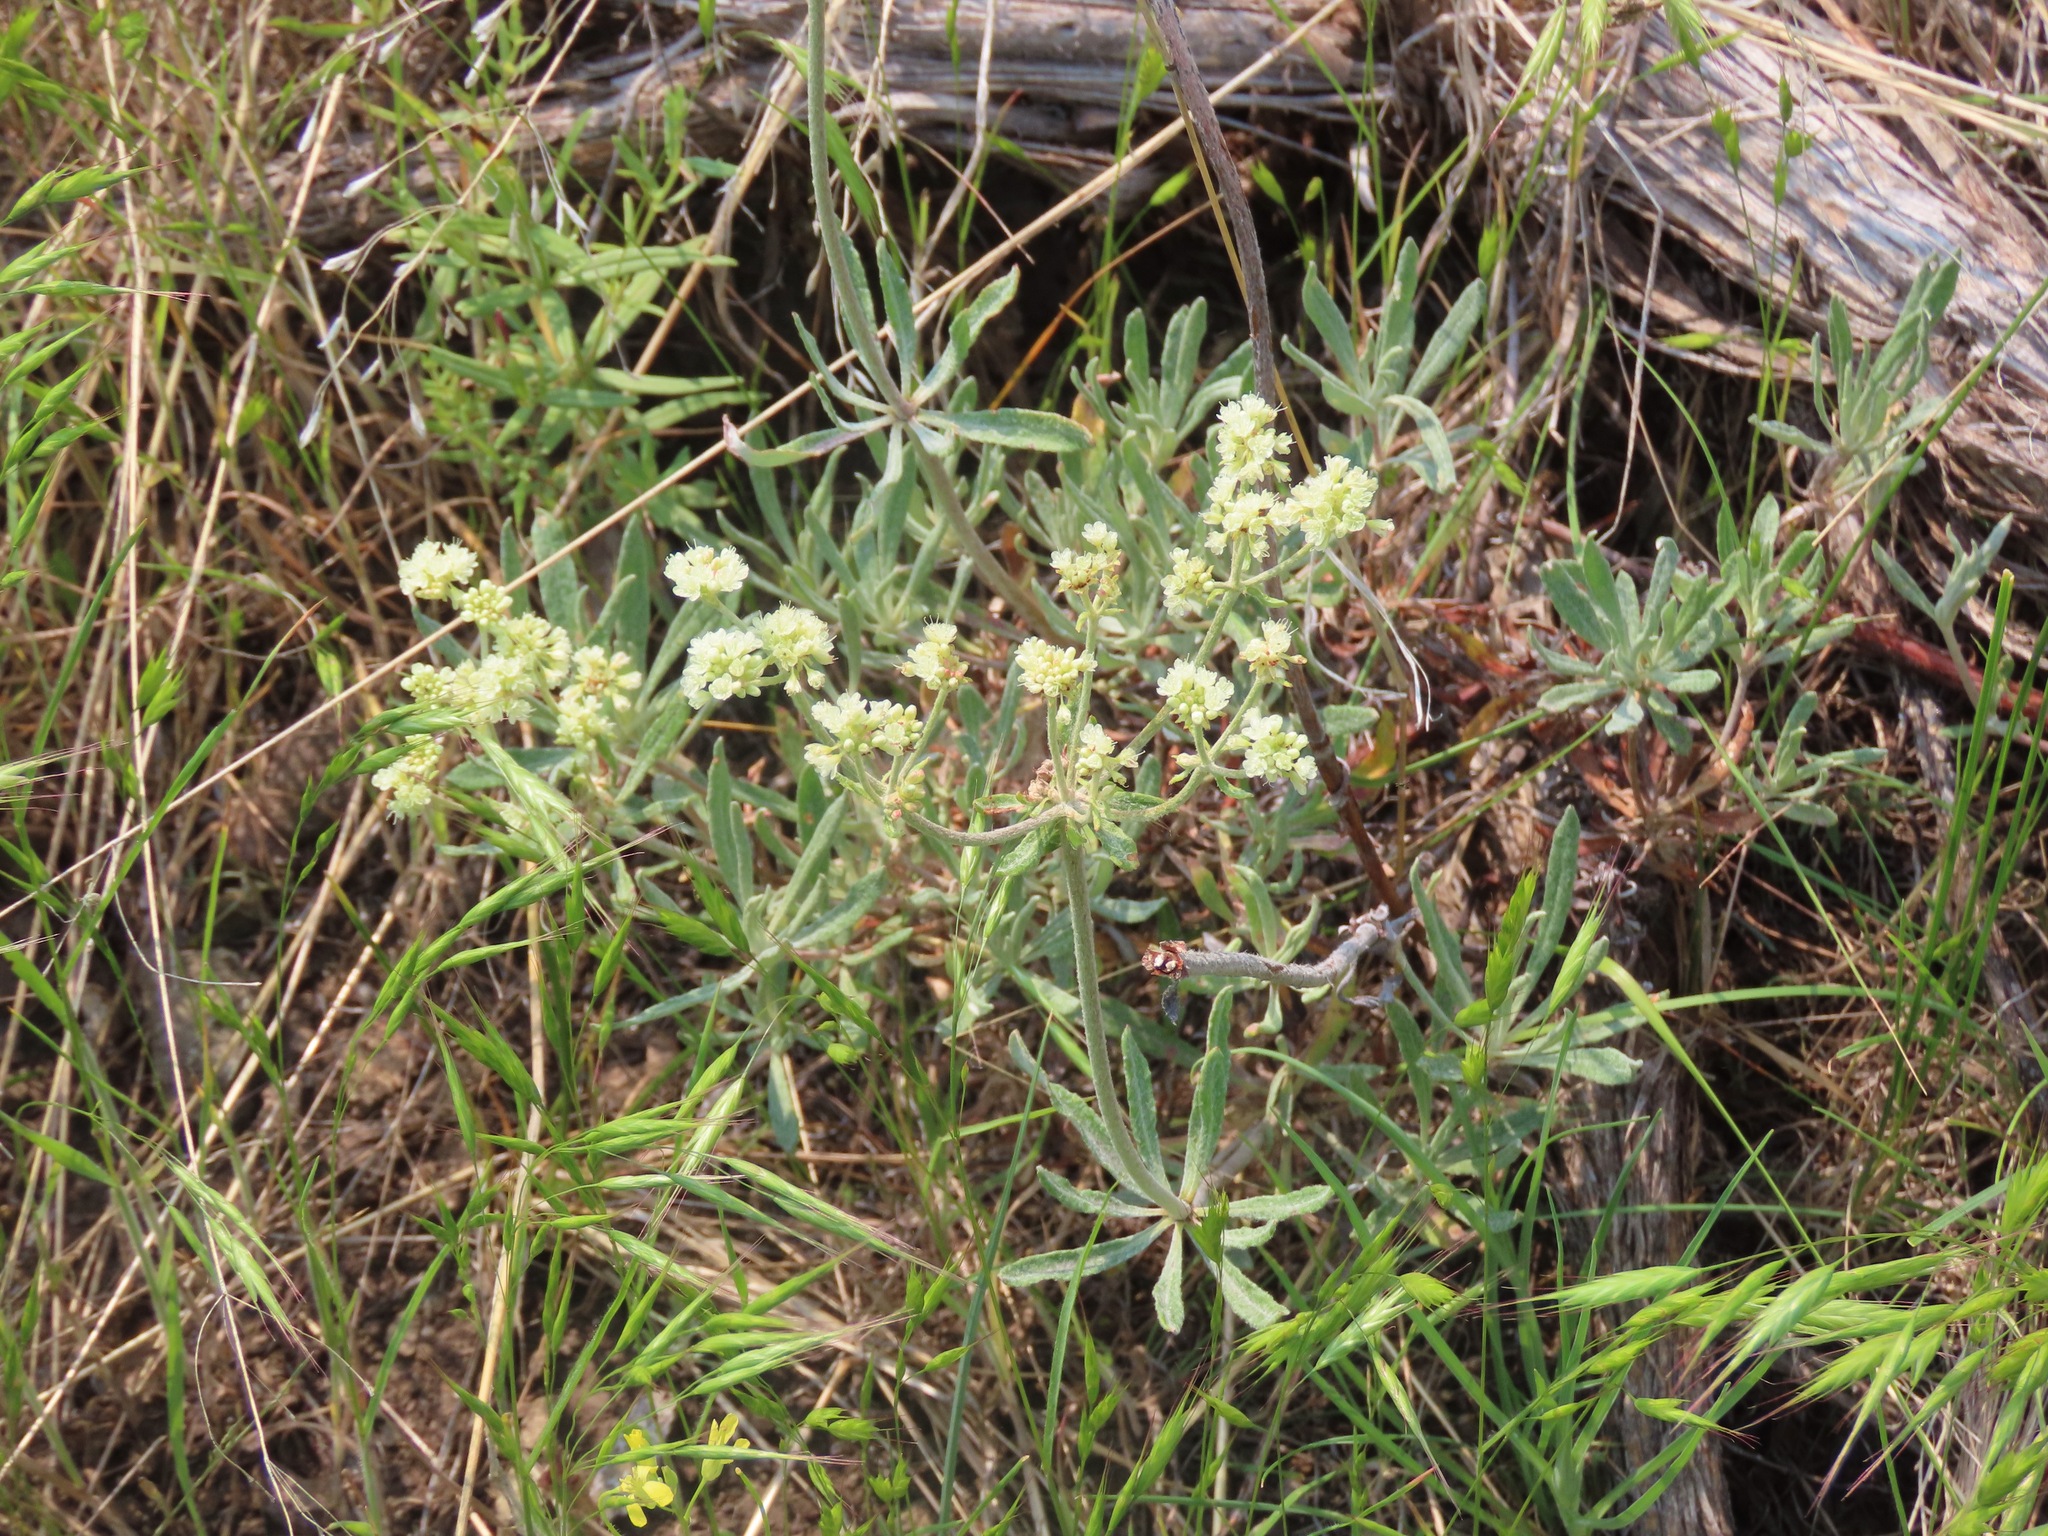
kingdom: Plantae
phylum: Tracheophyta
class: Magnoliopsida
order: Caryophyllales
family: Polygonaceae
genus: Eriogonum
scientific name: Eriogonum heracleoides
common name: Wyeth's buckwheat
